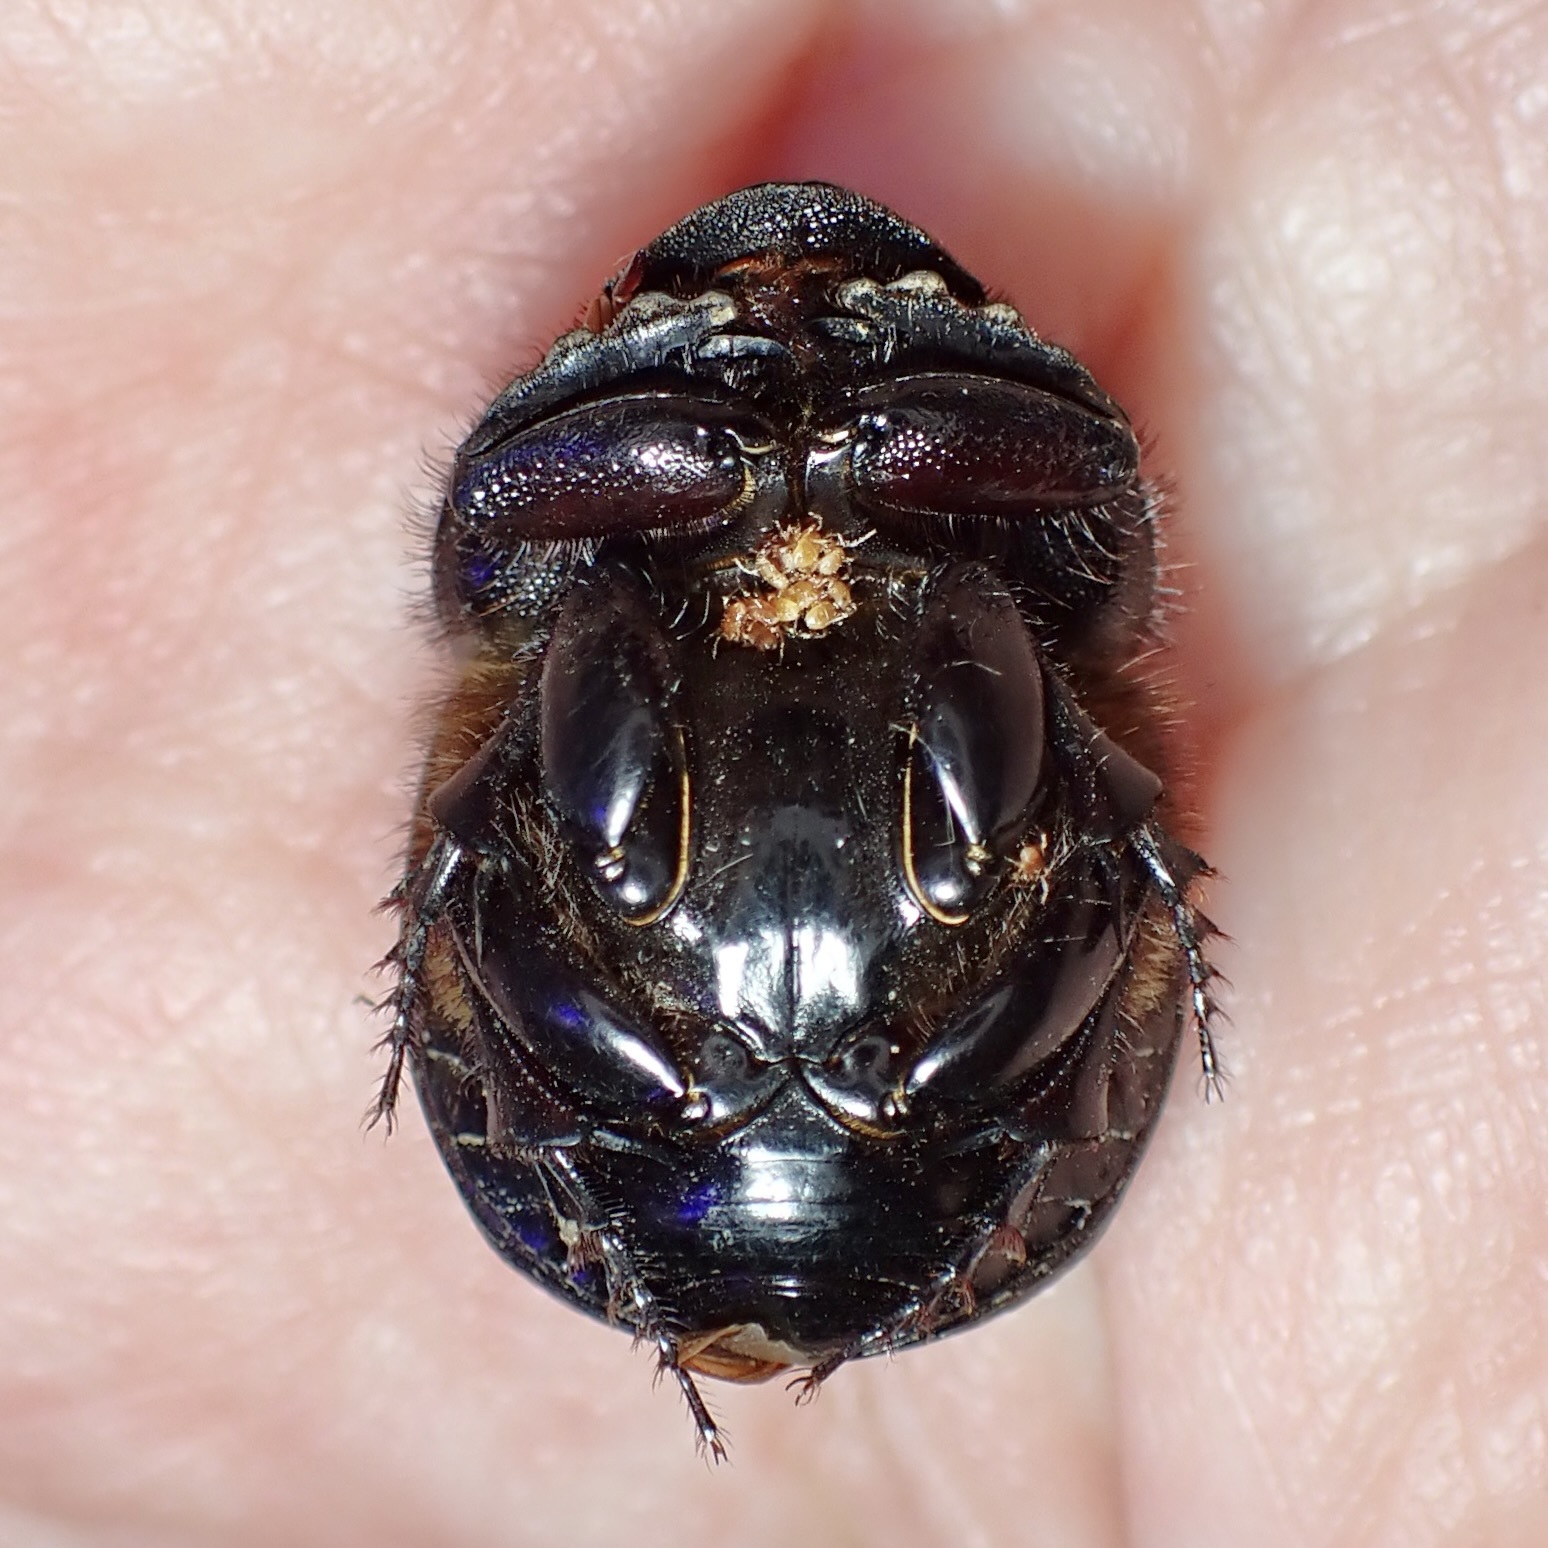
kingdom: Animalia
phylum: Arthropoda
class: Insecta
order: Coleoptera
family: Scarabaeidae
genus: Dichotomius
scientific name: Dichotomius colonicus
